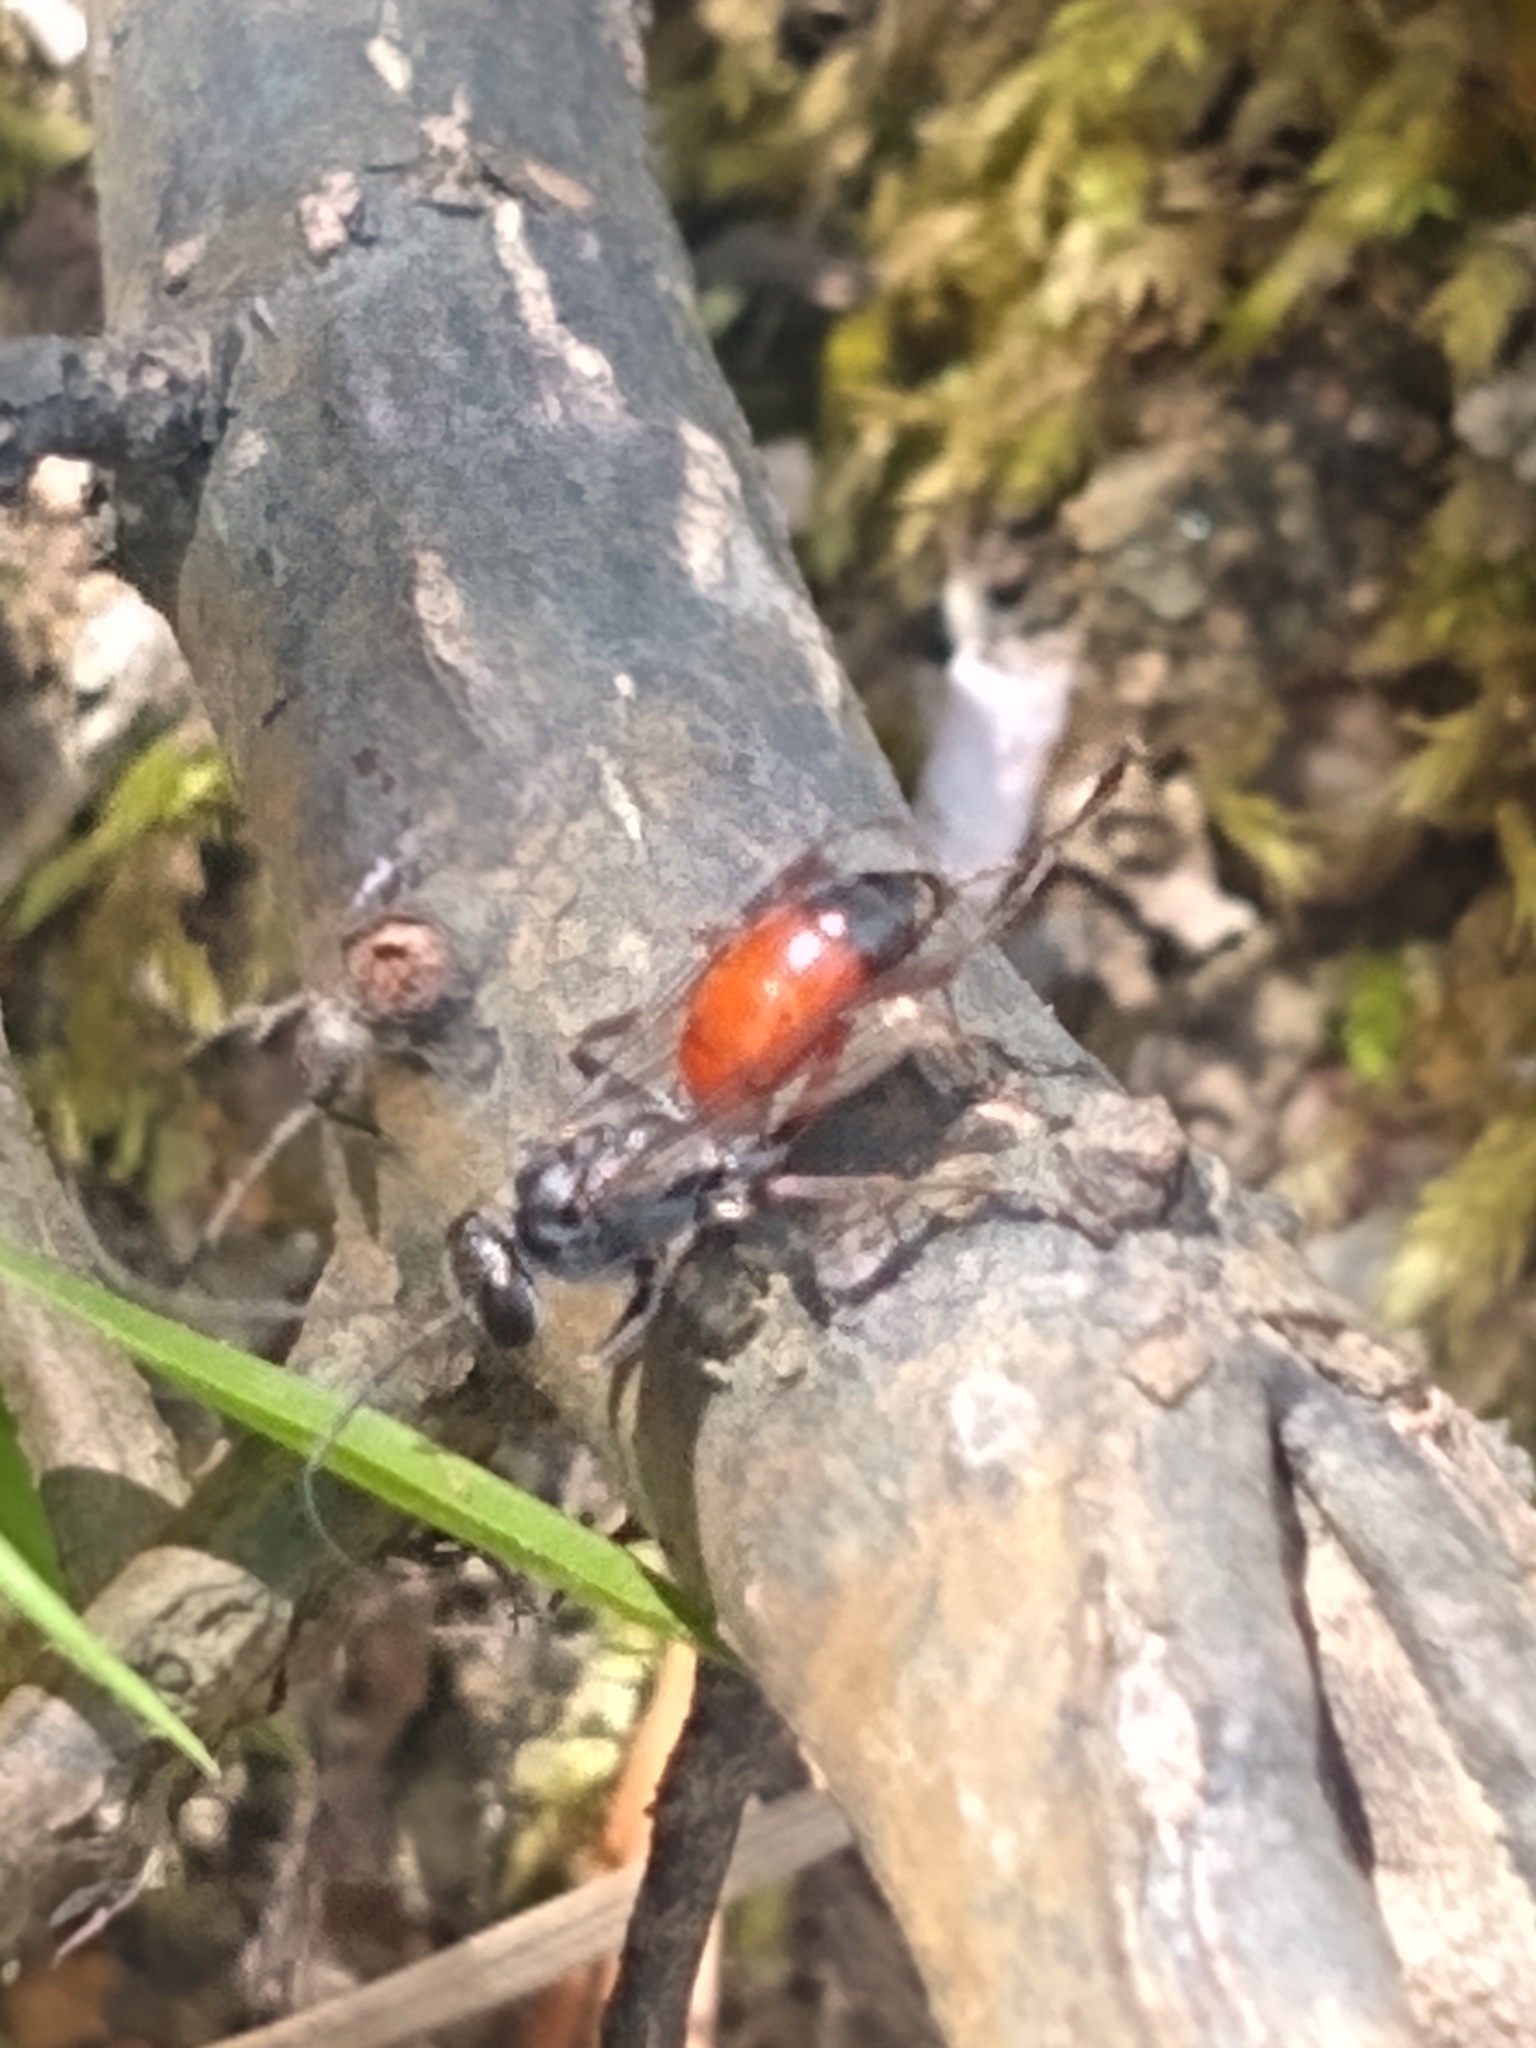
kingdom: Animalia
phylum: Arthropoda
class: Insecta
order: Hymenoptera
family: Pompilidae
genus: Caliadurgus
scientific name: Caliadurgus fasciatellus
